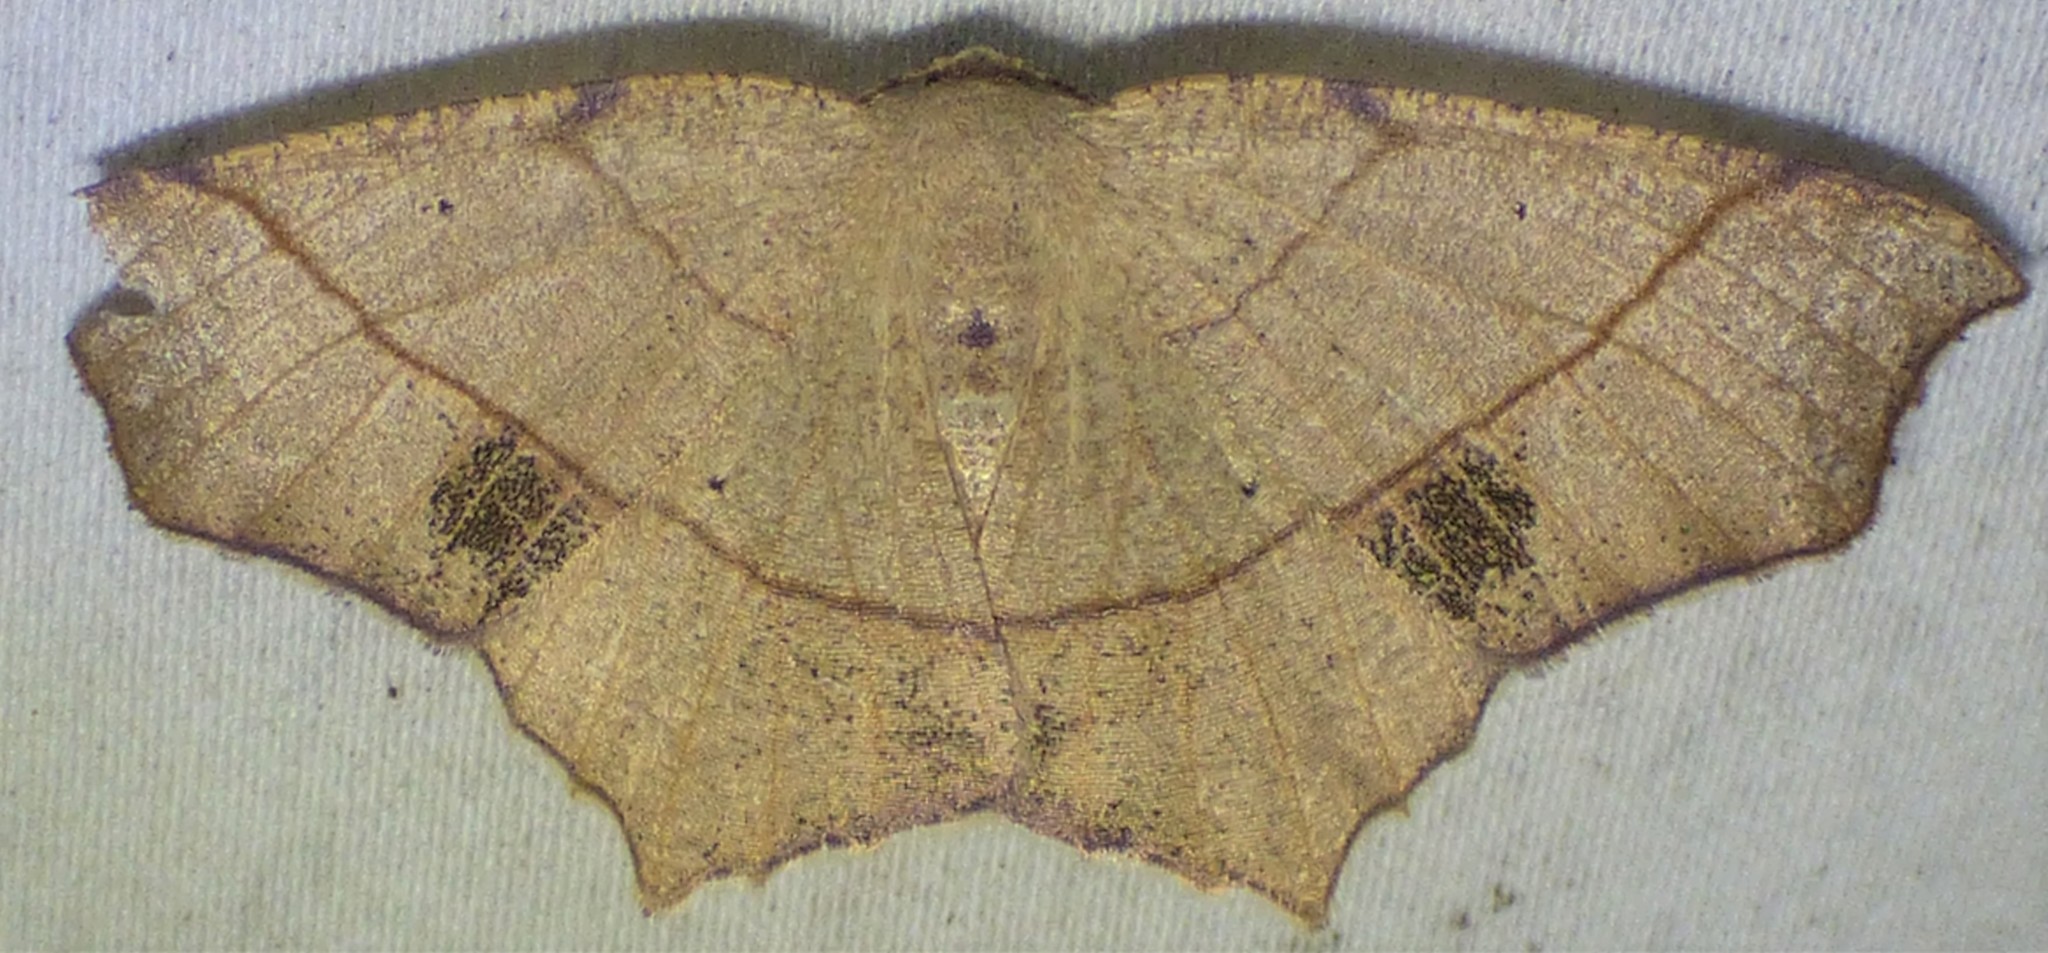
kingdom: Animalia
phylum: Arthropoda
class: Insecta
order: Lepidoptera
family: Geometridae
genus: Besma
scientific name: Besma quercivoraria
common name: Oak besma
